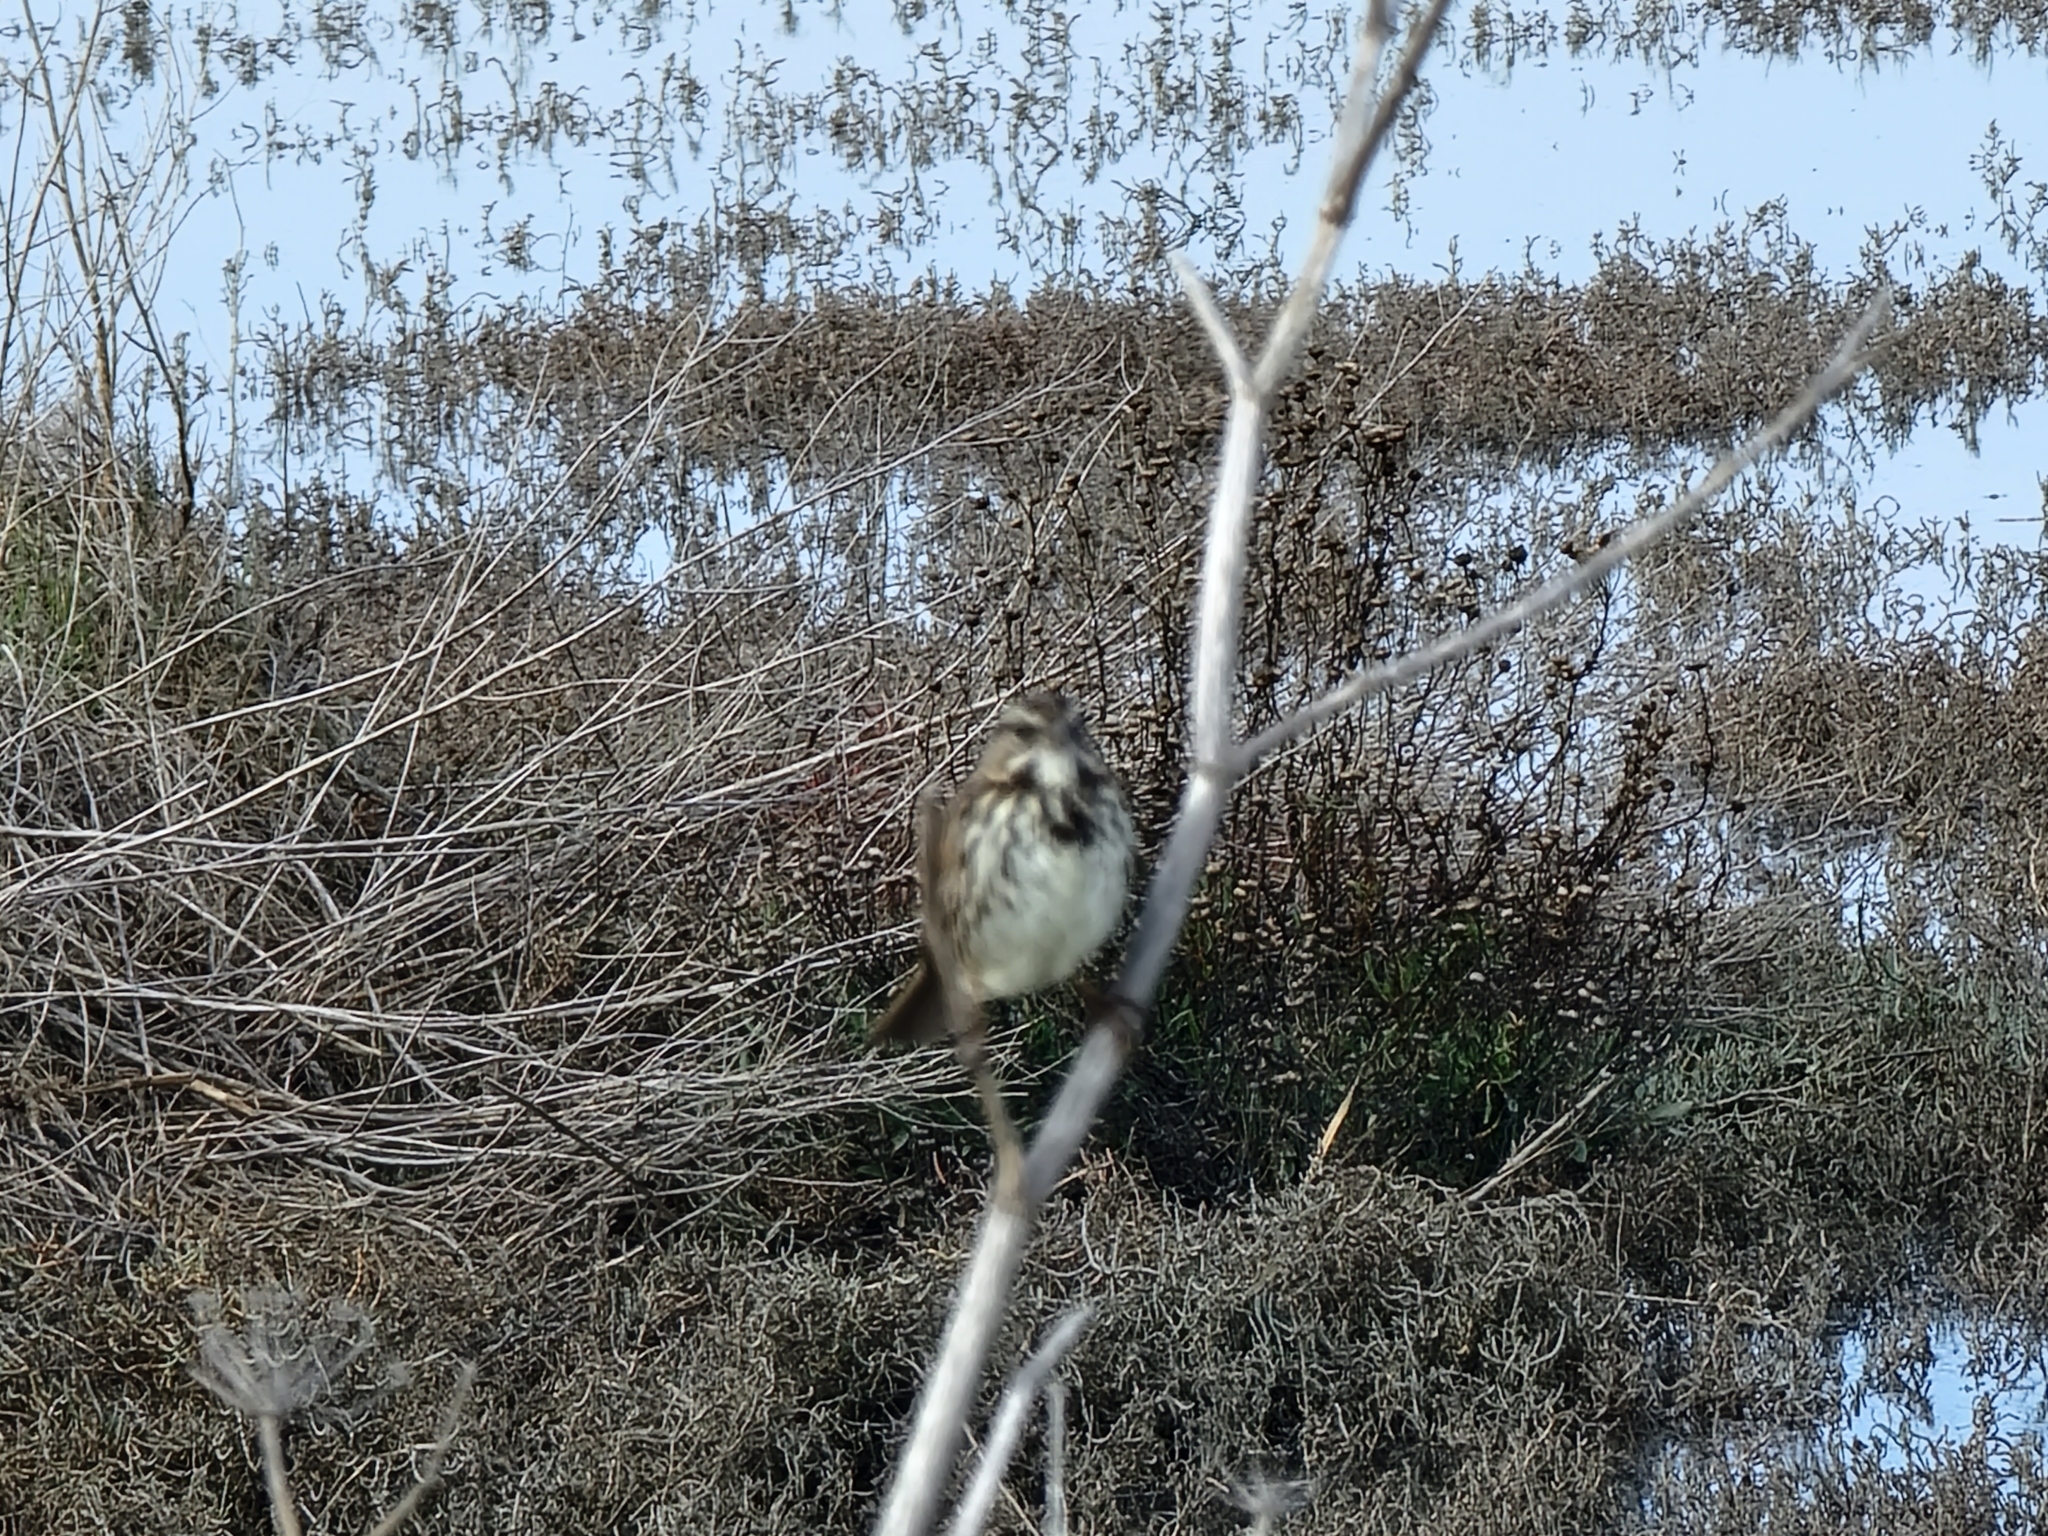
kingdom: Animalia
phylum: Chordata
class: Aves
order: Passeriformes
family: Passerellidae
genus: Melospiza
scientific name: Melospiza melodia
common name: Song sparrow
